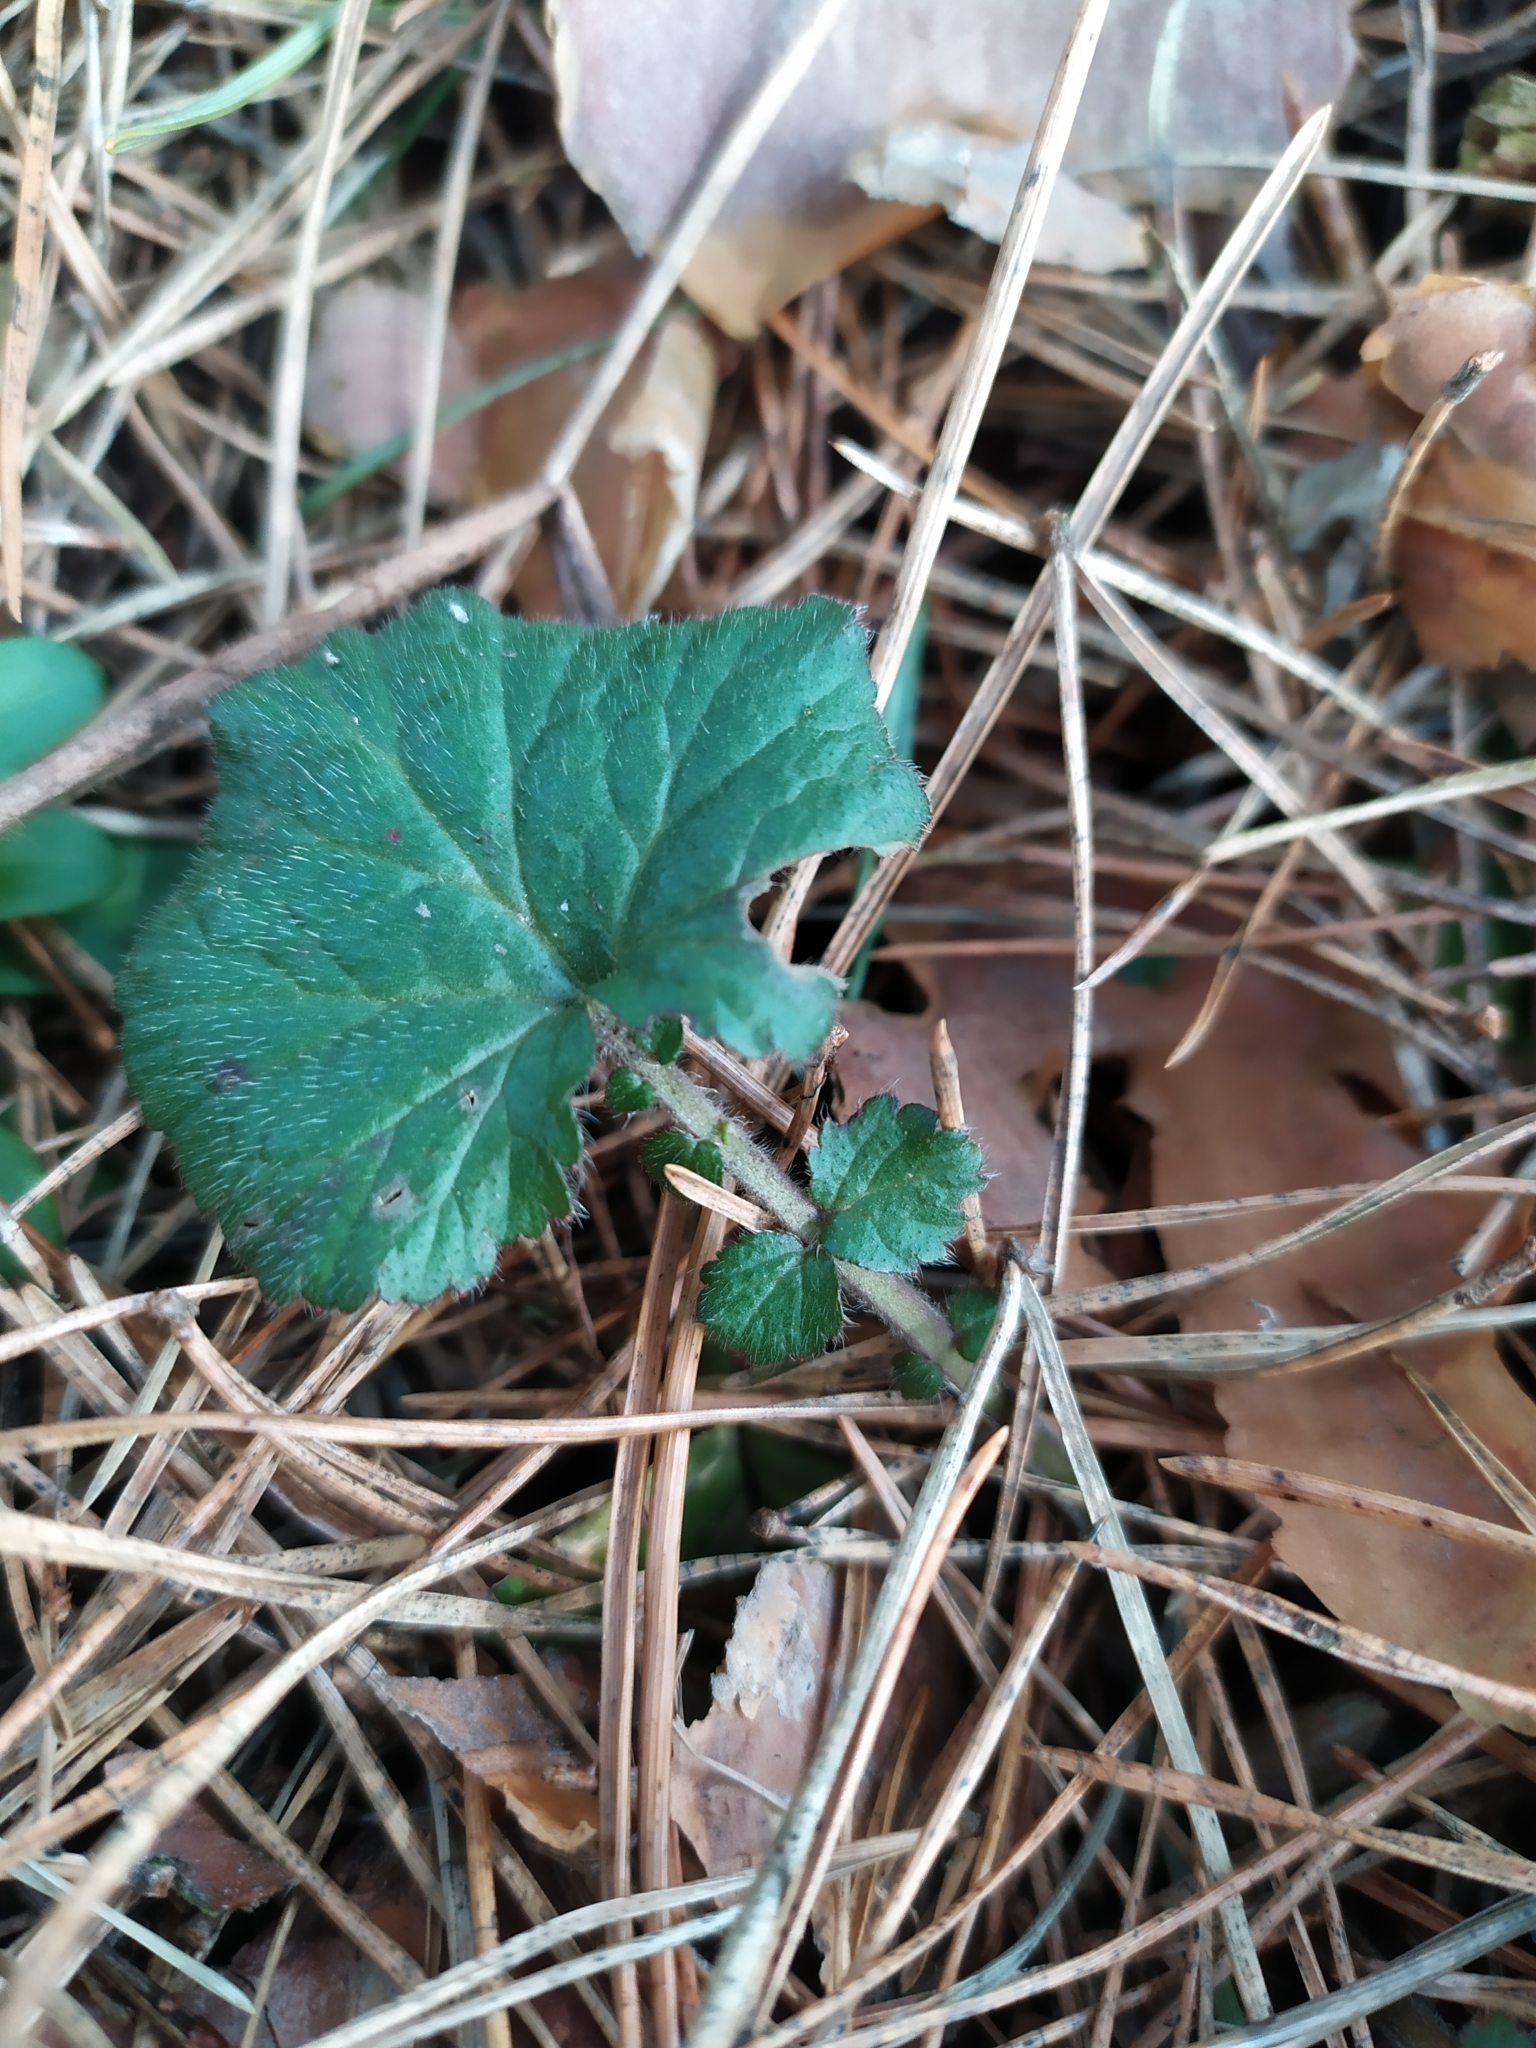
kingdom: Plantae
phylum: Tracheophyta
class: Magnoliopsida
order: Rosales
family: Rosaceae
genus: Geum
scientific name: Geum urbanum
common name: Wood avens
